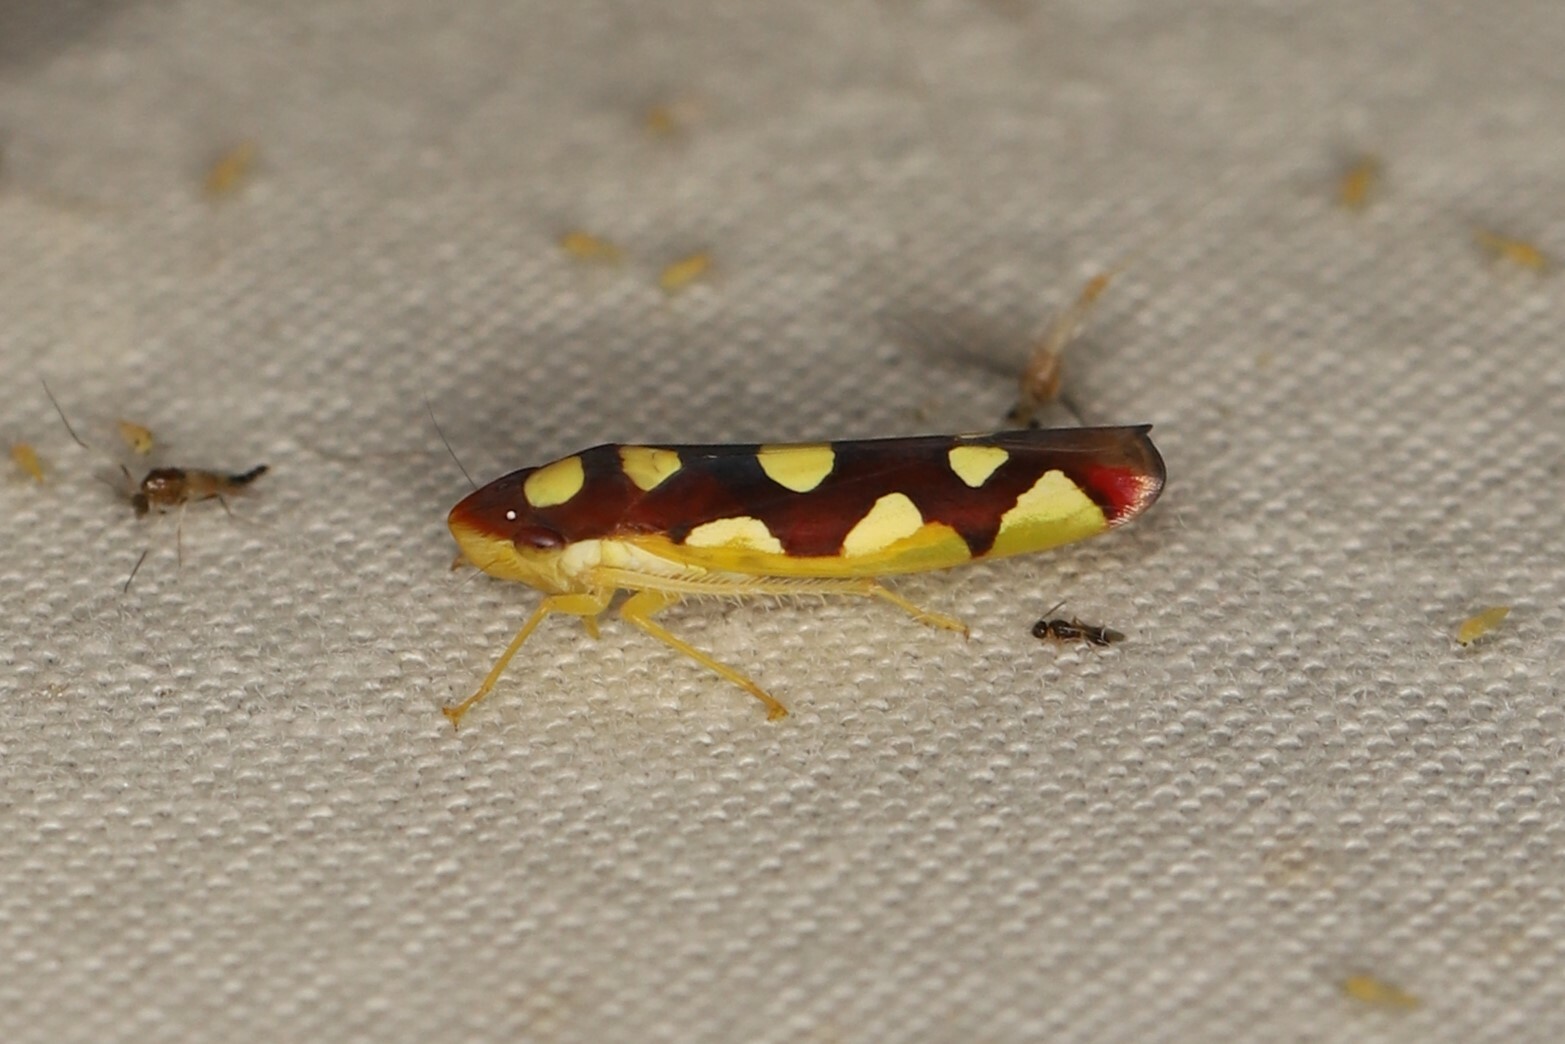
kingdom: Animalia
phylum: Arthropoda
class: Insecta
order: Hemiptera
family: Cicadellidae
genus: Baleja
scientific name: Baleja flavoguttata
